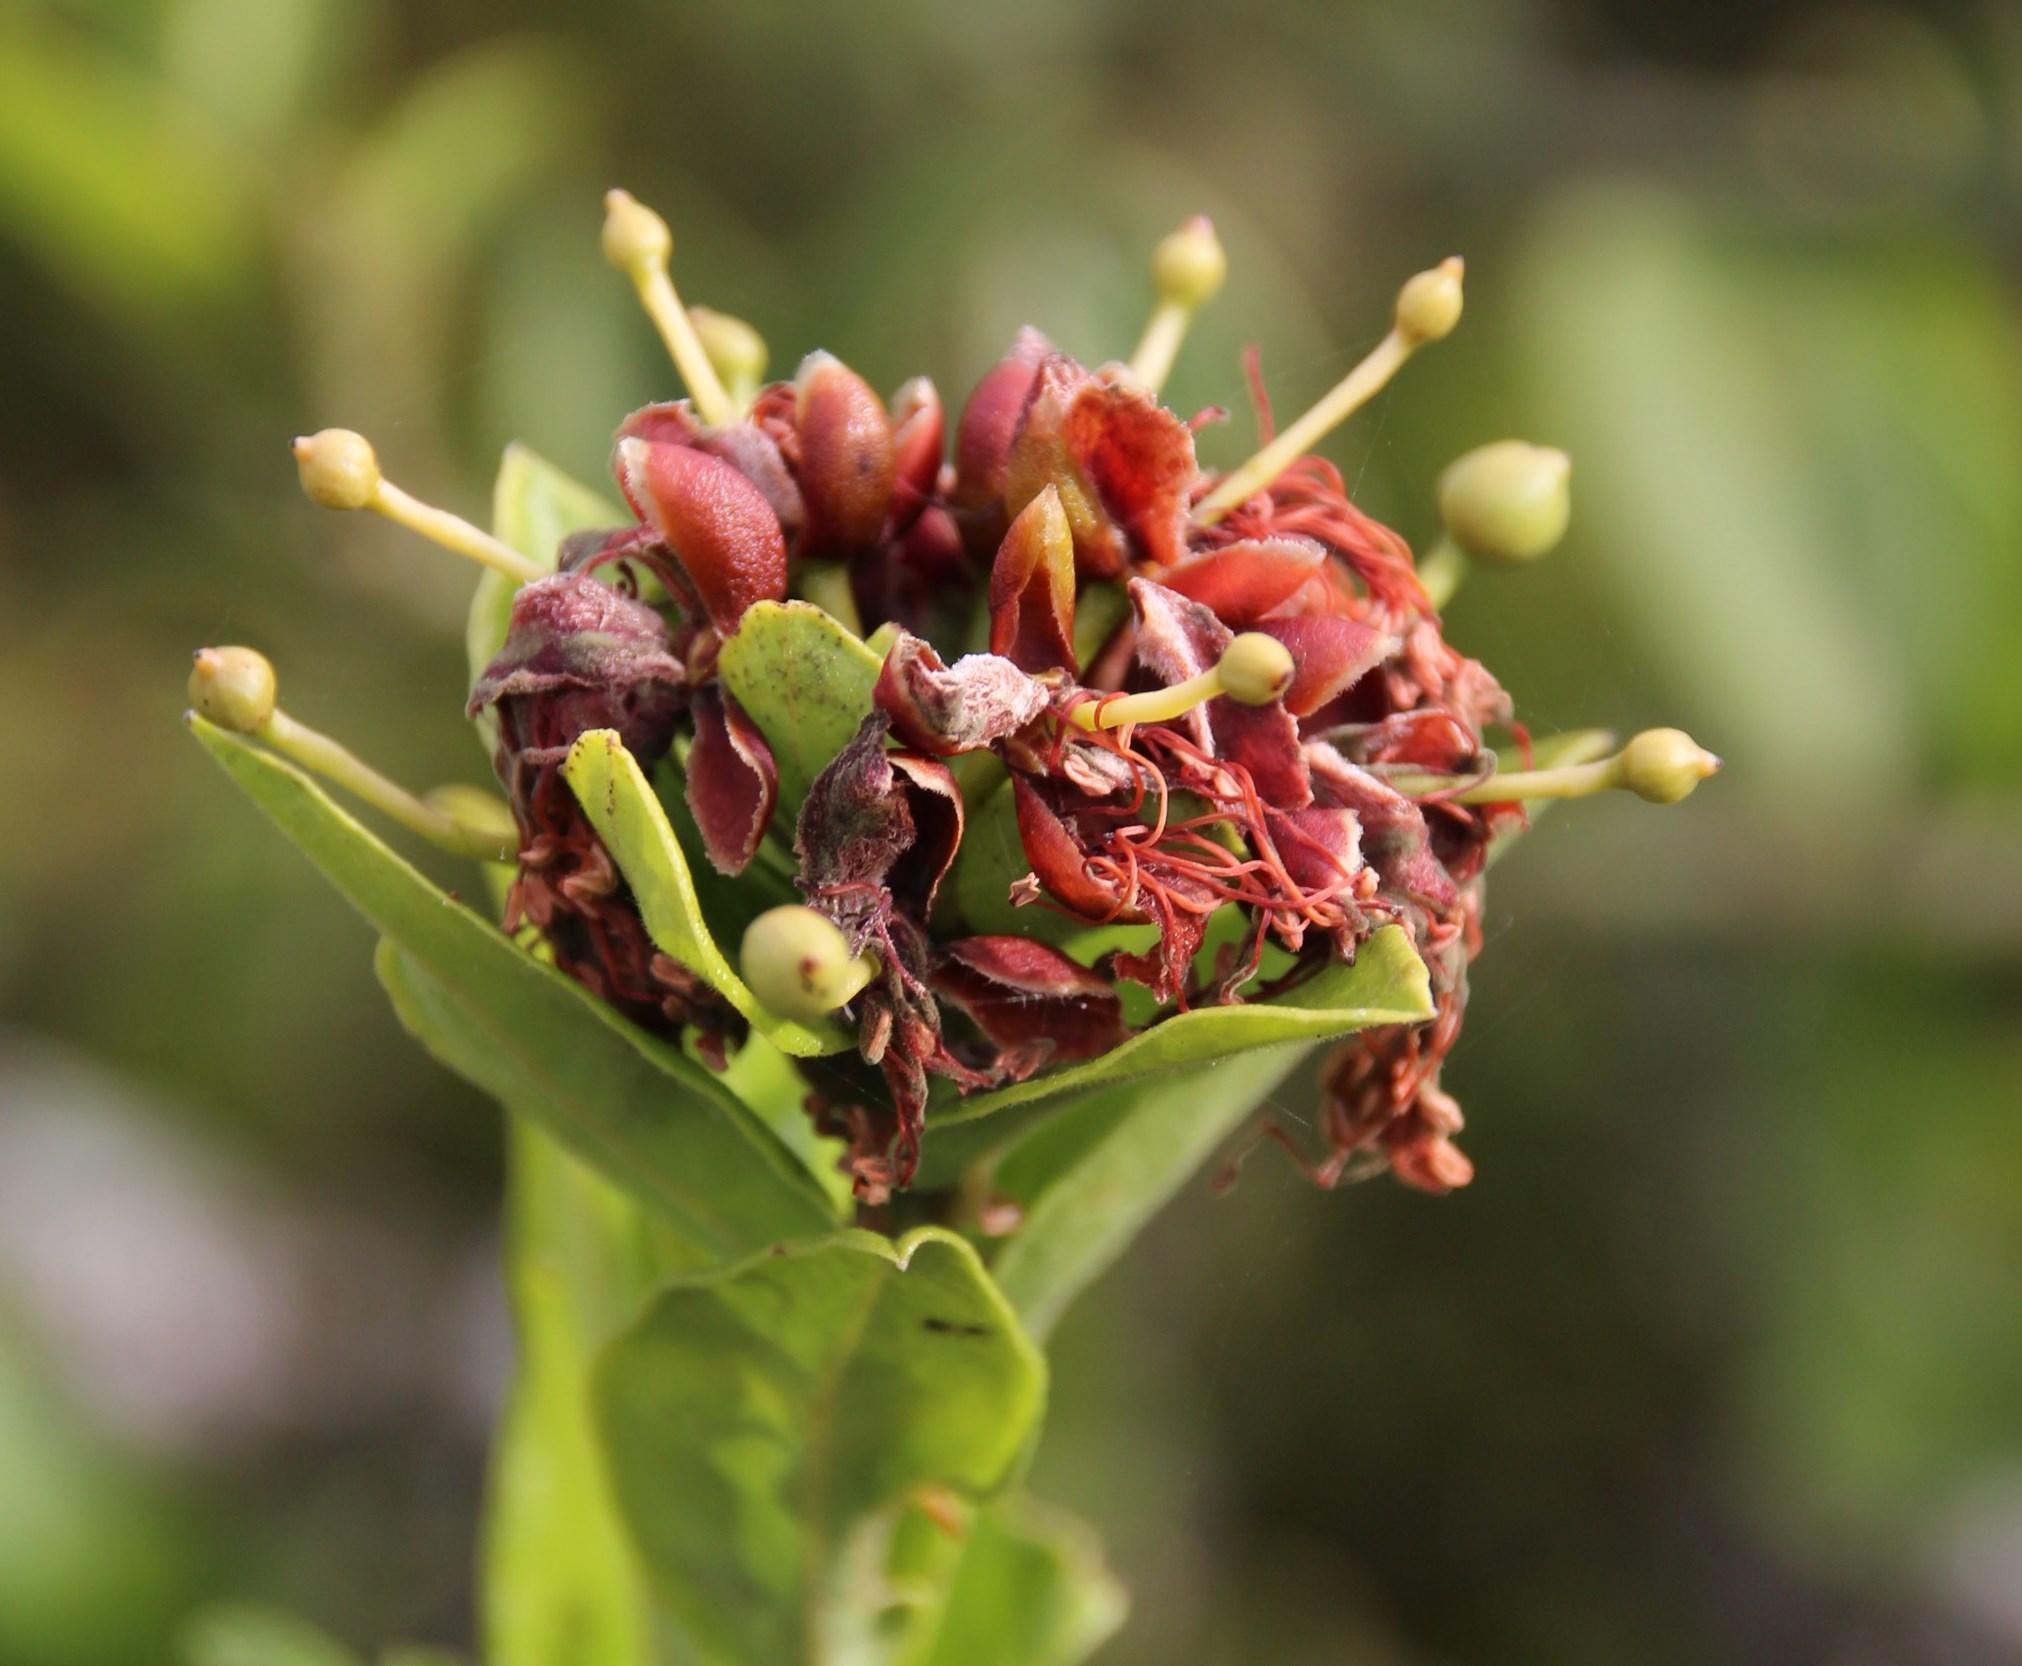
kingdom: Plantae
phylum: Tracheophyta
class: Magnoliopsida
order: Brassicales
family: Capparaceae
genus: Capparis
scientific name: Capparis sepiaria
